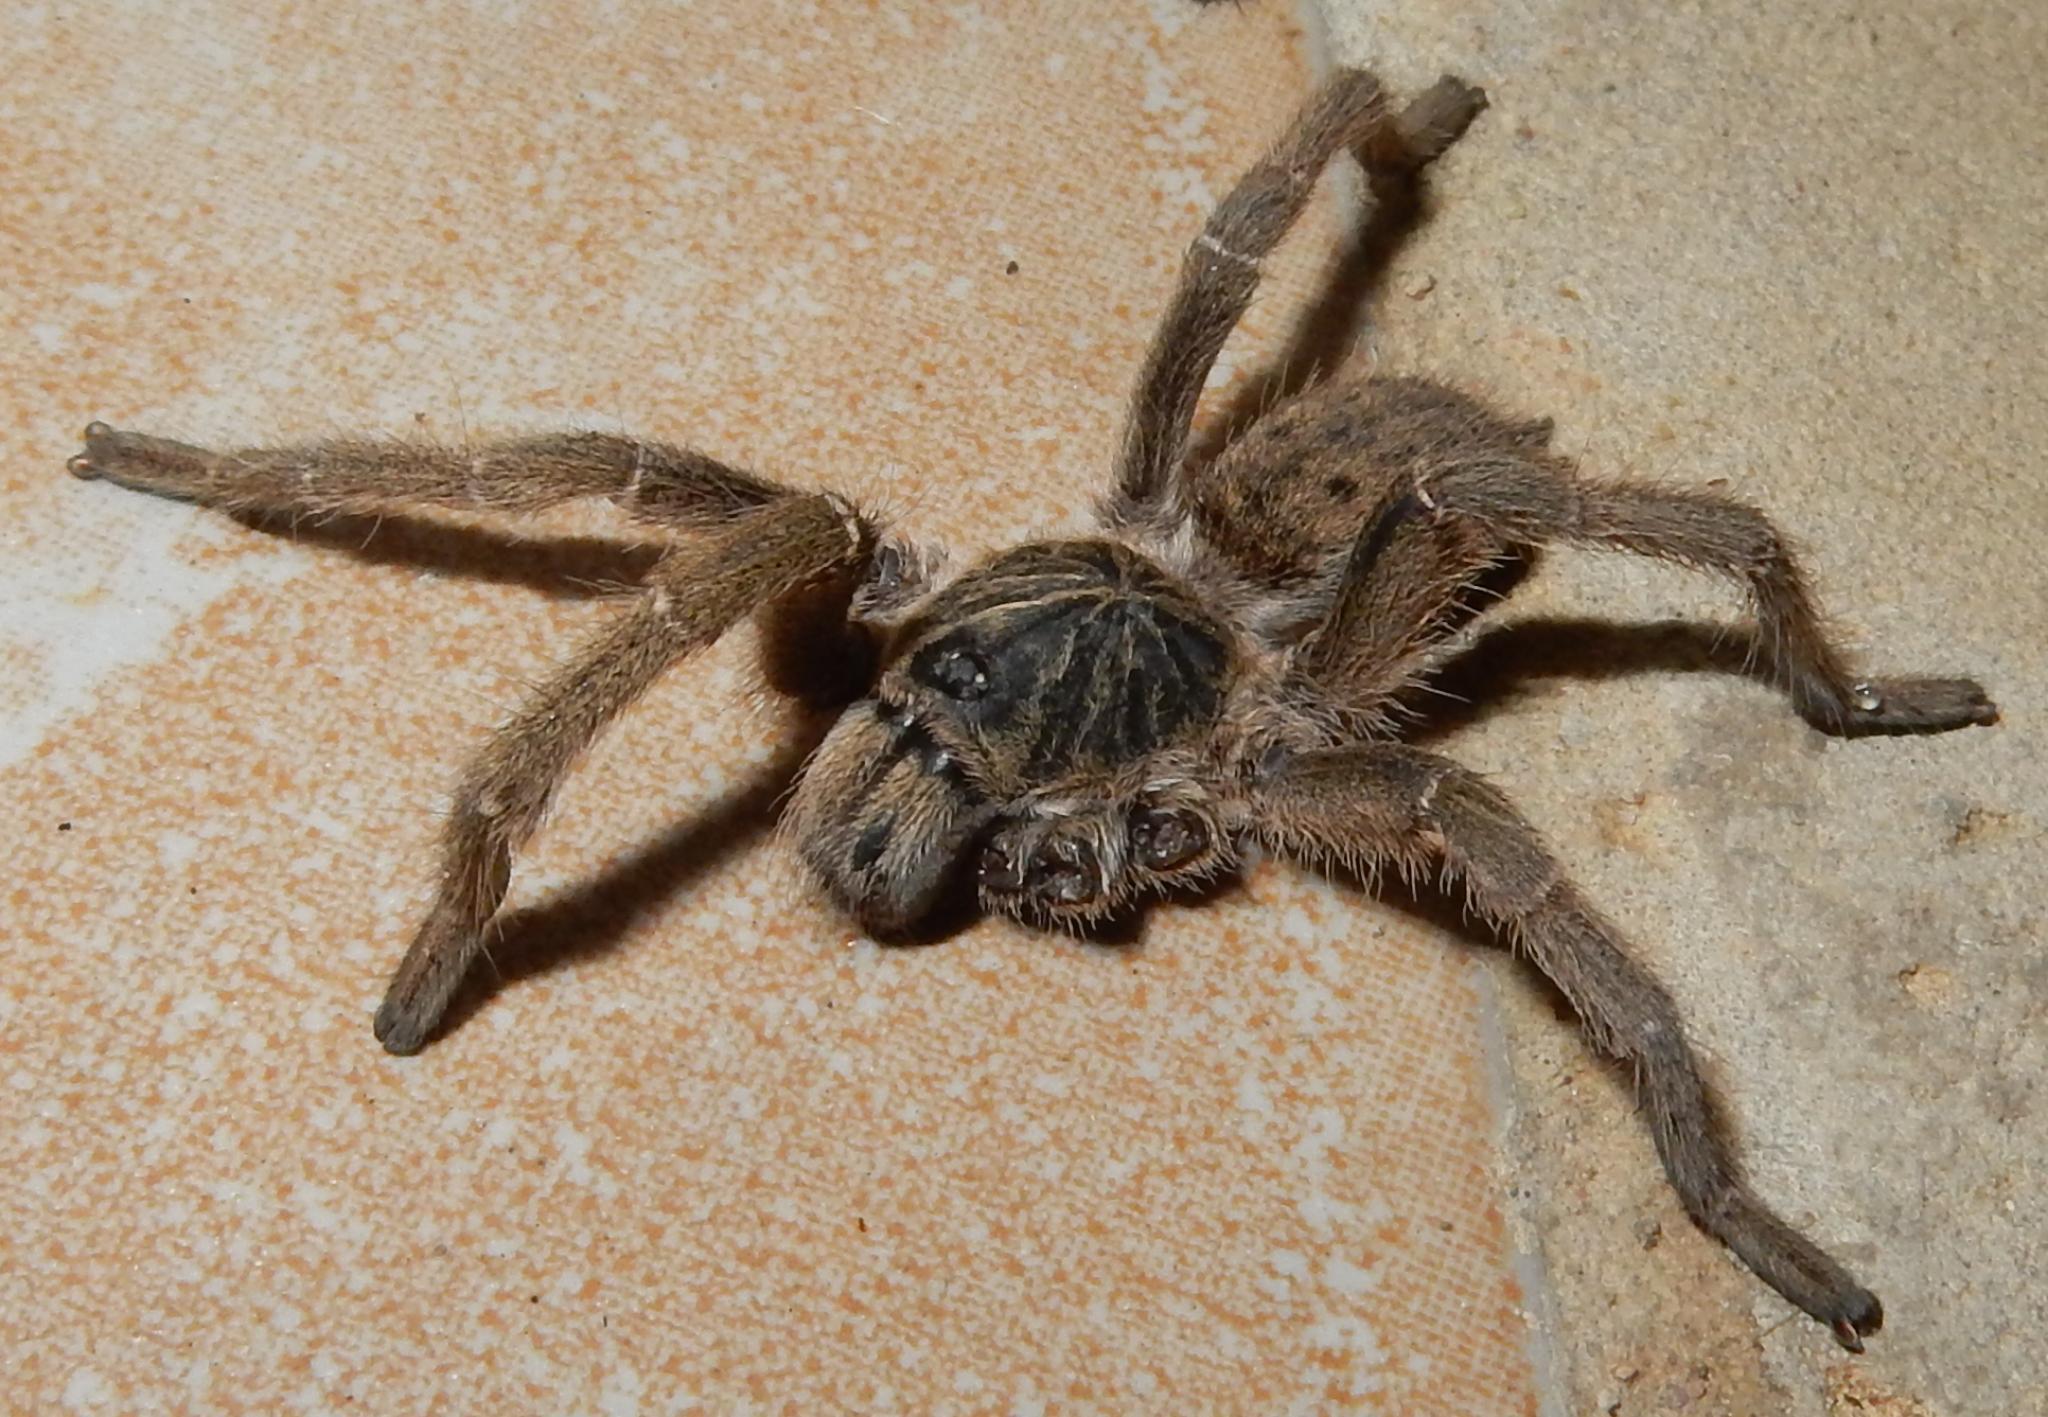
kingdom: Animalia
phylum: Arthropoda
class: Arachnida
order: Araneae
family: Theraphosidae
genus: Harpactira
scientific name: Harpactira tigrina
